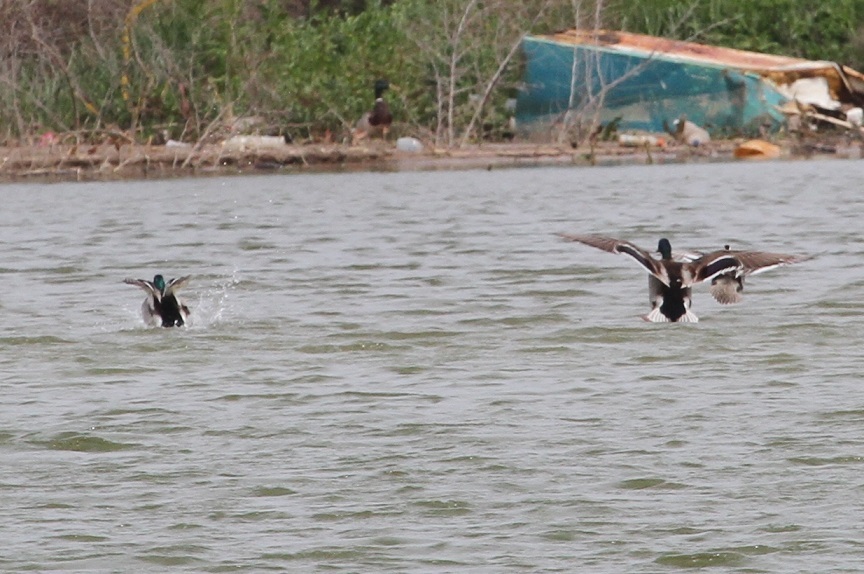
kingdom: Animalia
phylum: Chordata
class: Aves
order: Anseriformes
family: Anatidae
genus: Anas
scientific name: Anas platyrhynchos
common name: Mallard
